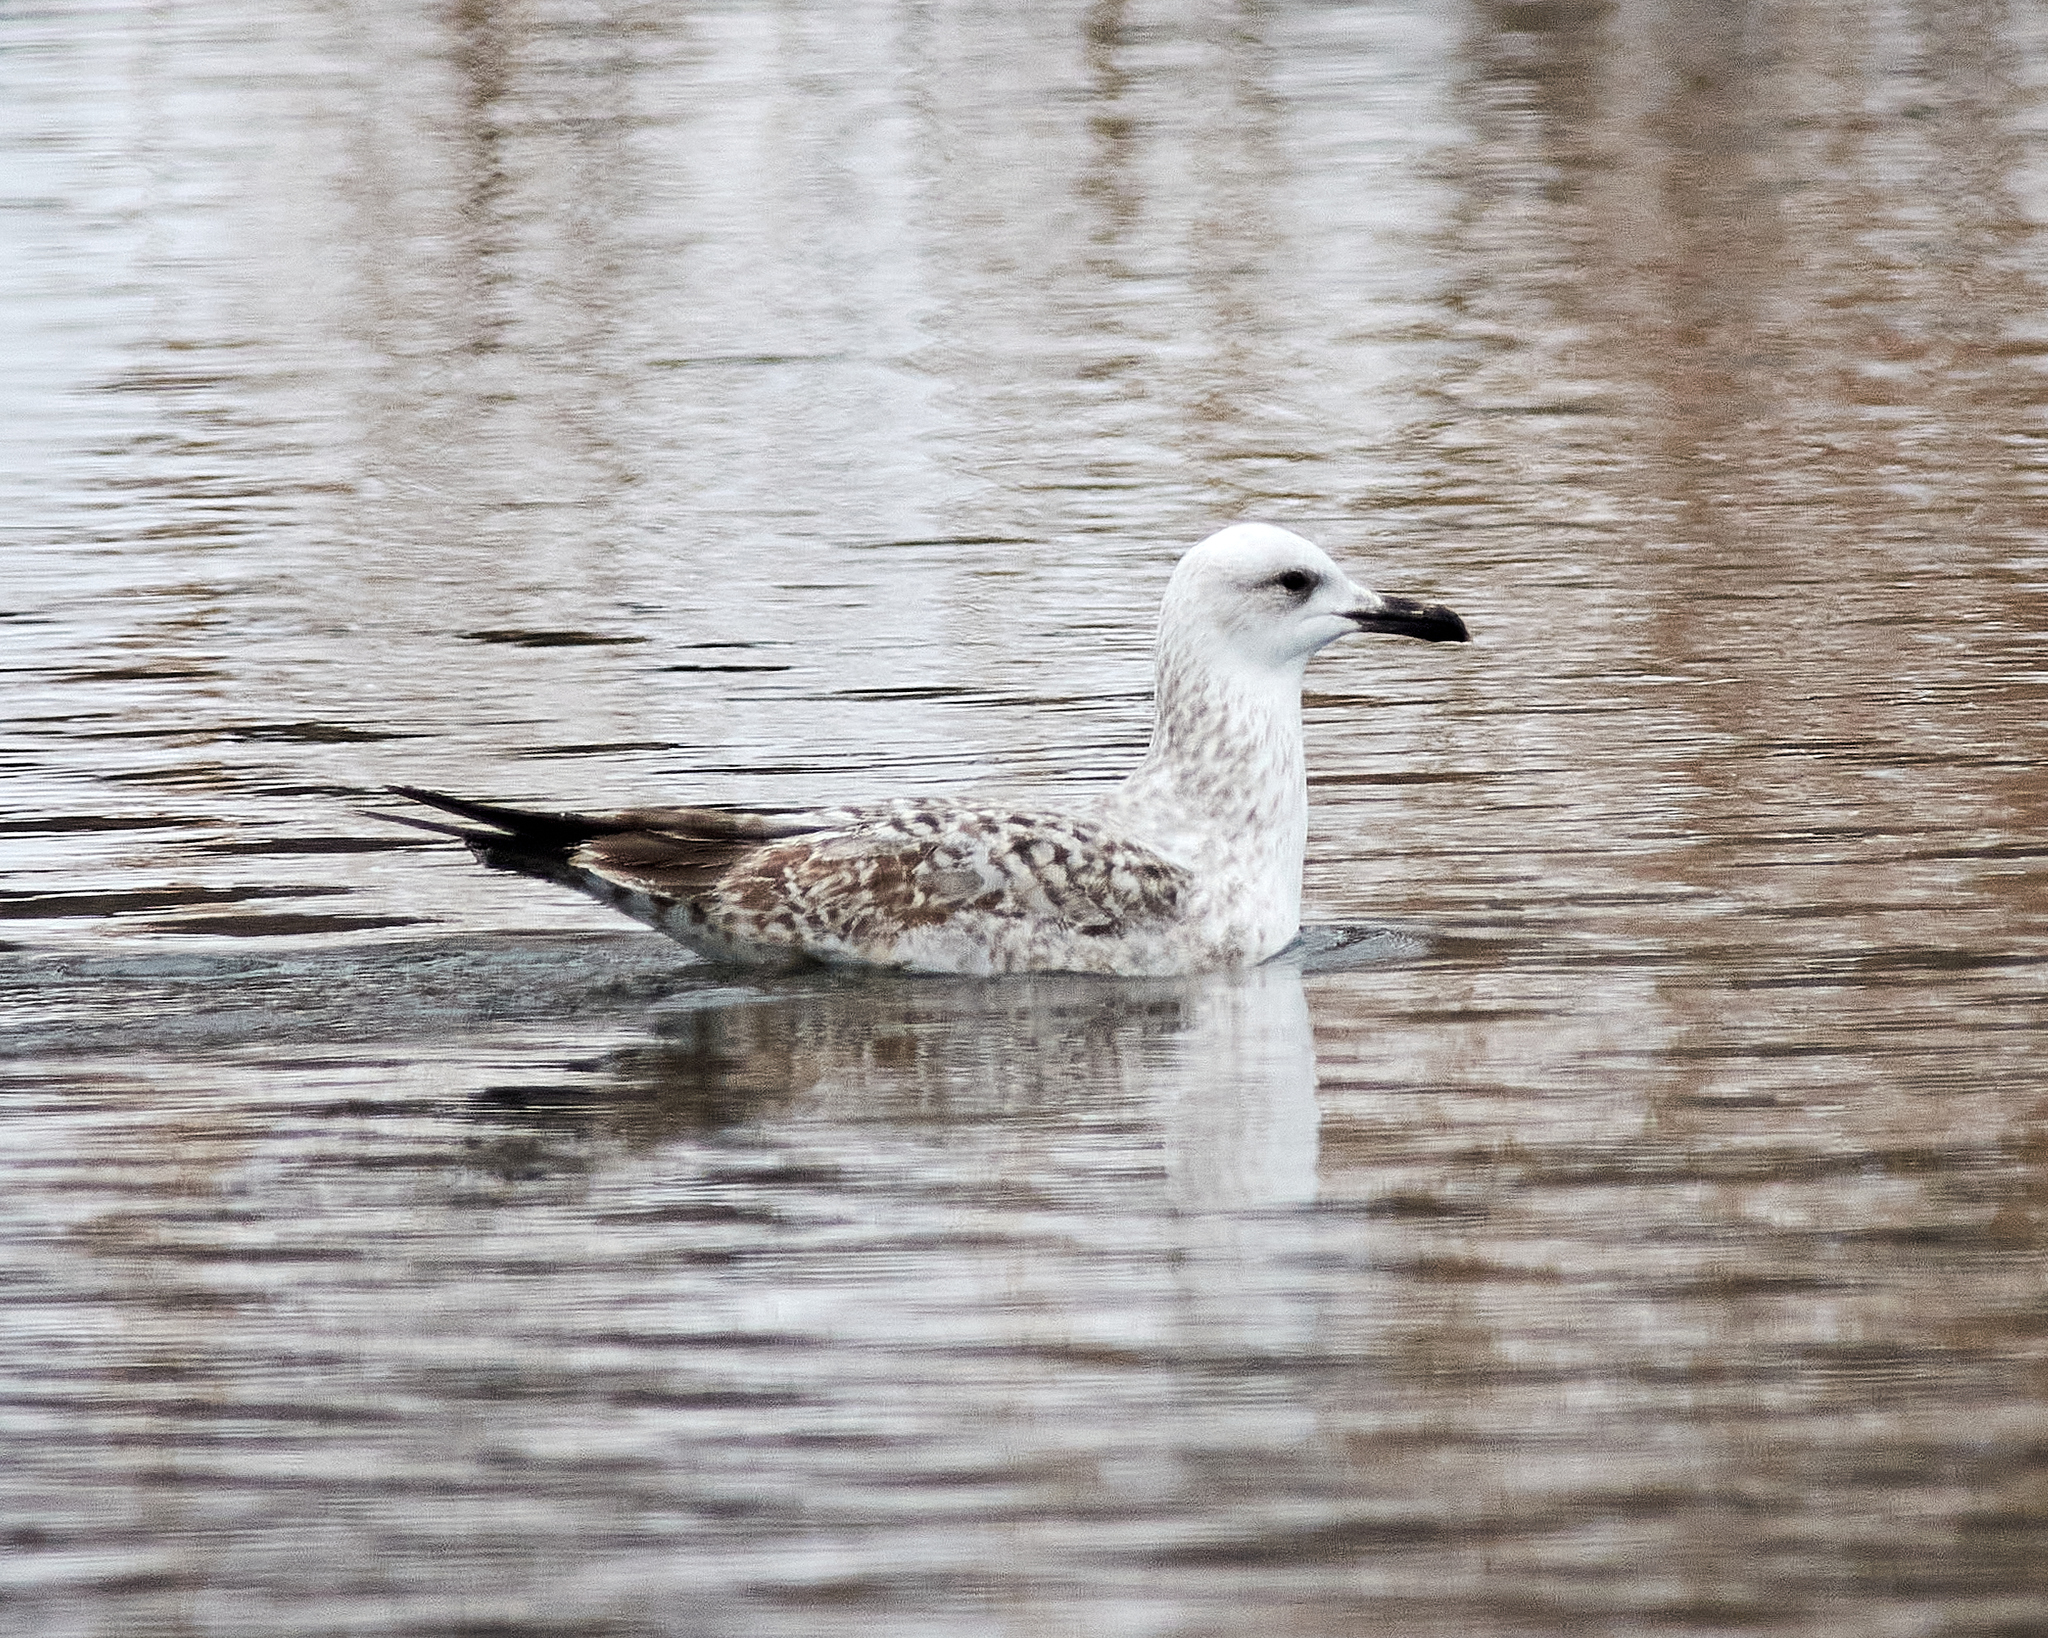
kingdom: Animalia
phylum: Chordata
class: Aves
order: Charadriiformes
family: Laridae
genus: Larus
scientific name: Larus cachinnans
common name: Caspian gull
